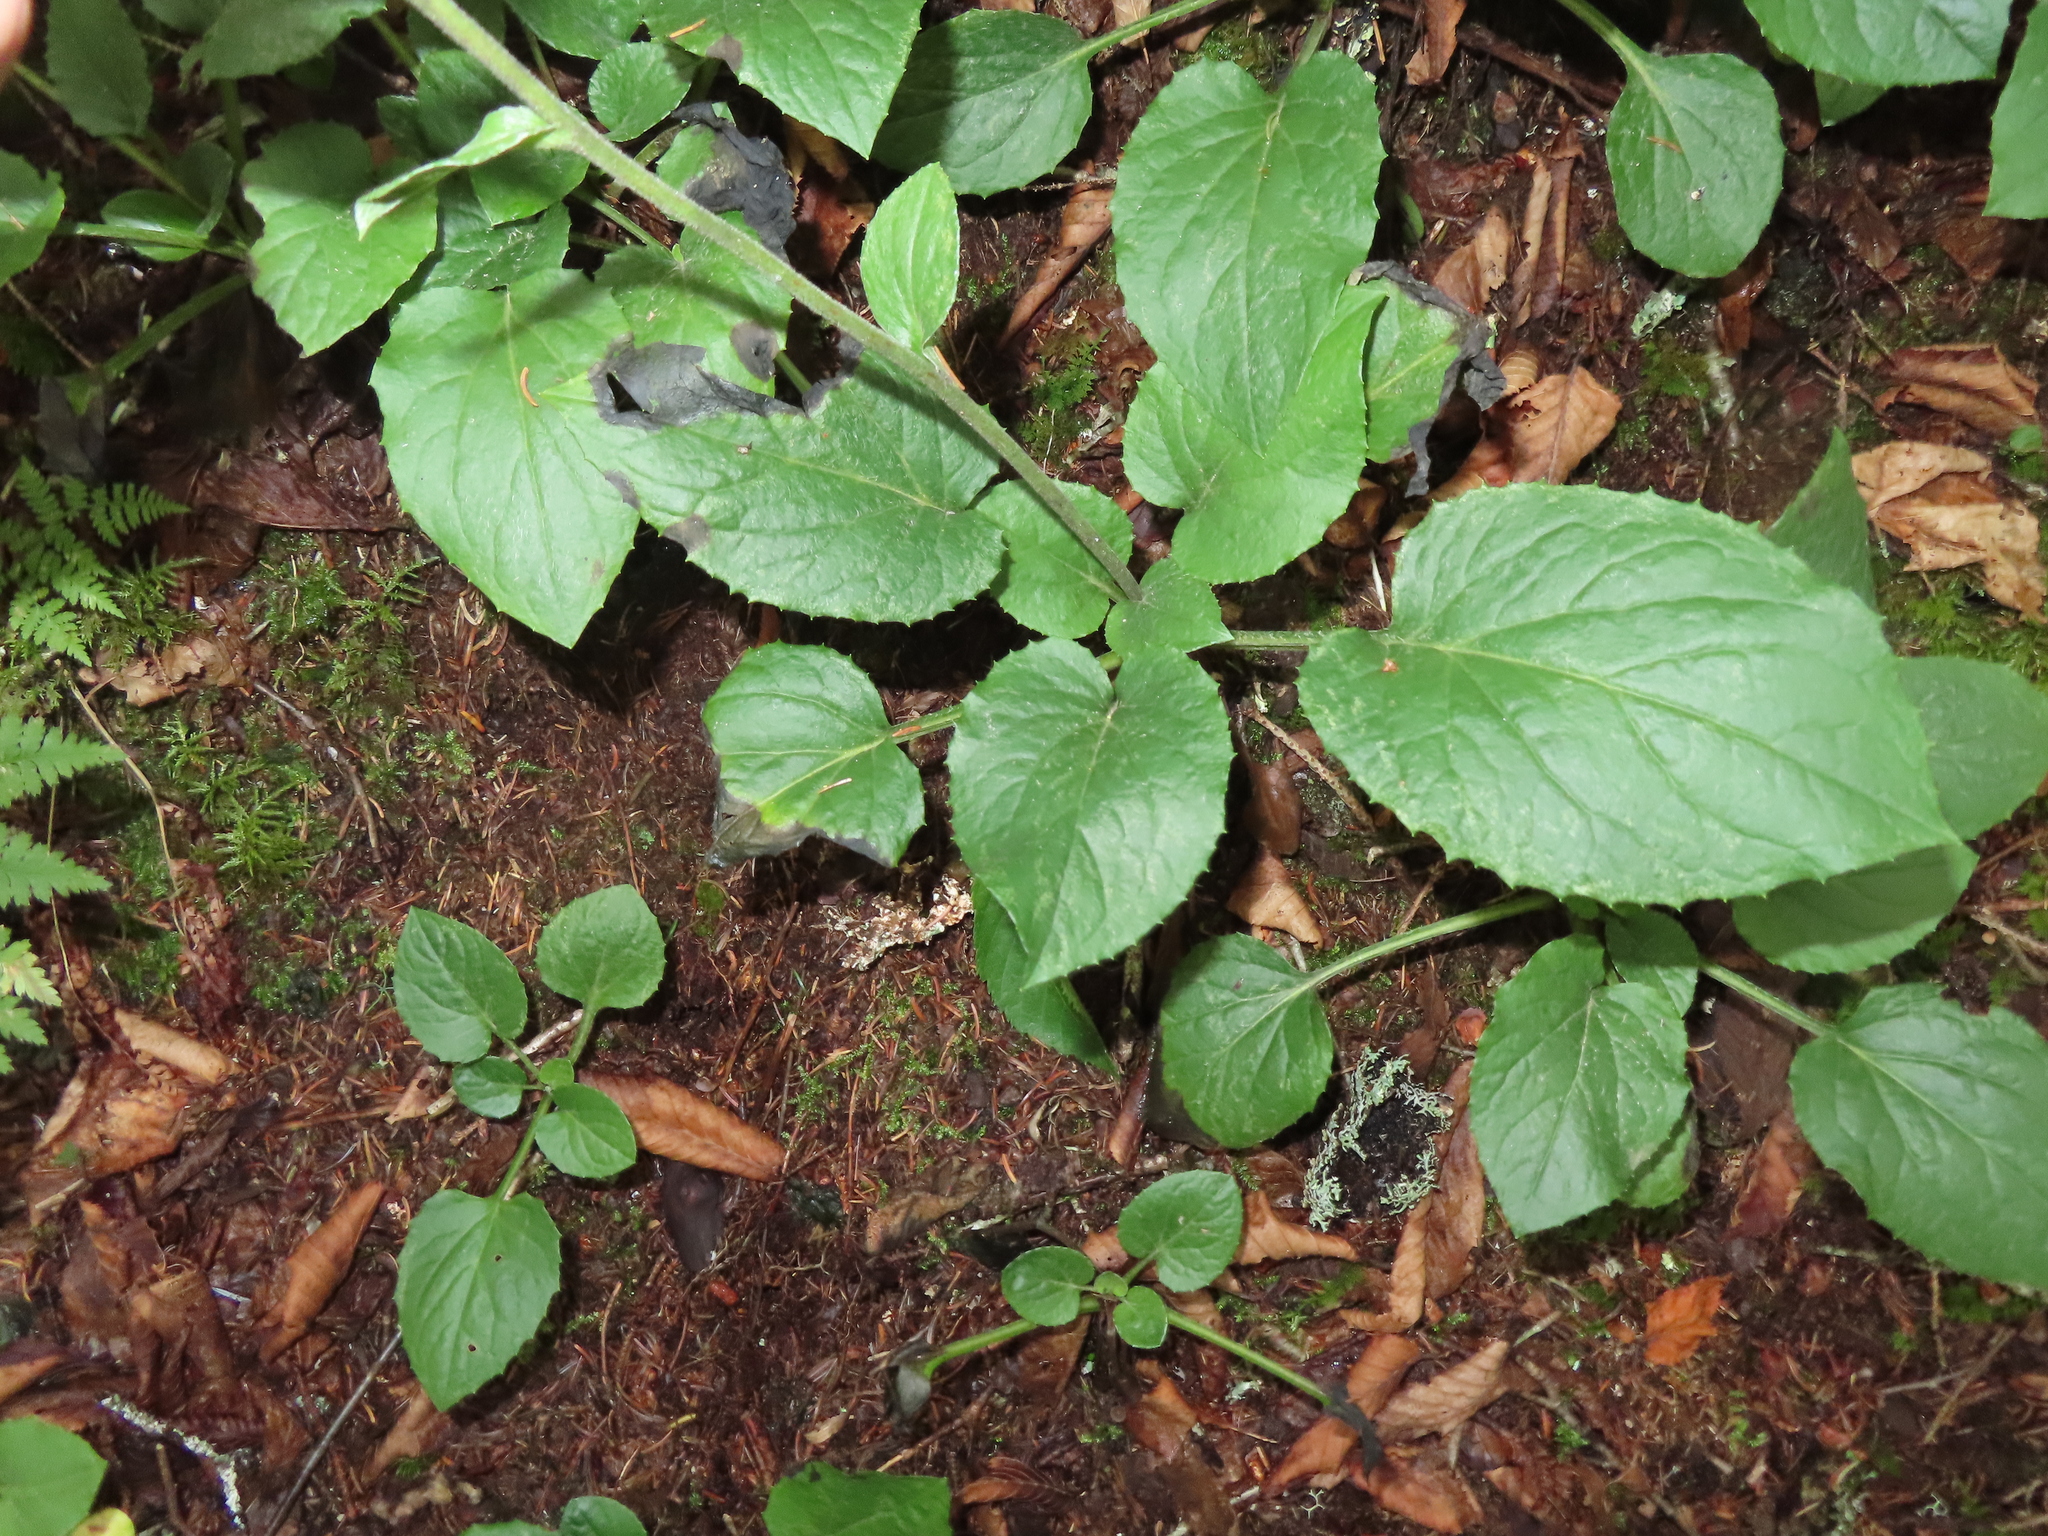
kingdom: Plantae
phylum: Tracheophyta
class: Magnoliopsida
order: Asterales
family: Asteraceae
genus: Rugelia
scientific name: Rugelia nudicaulis
